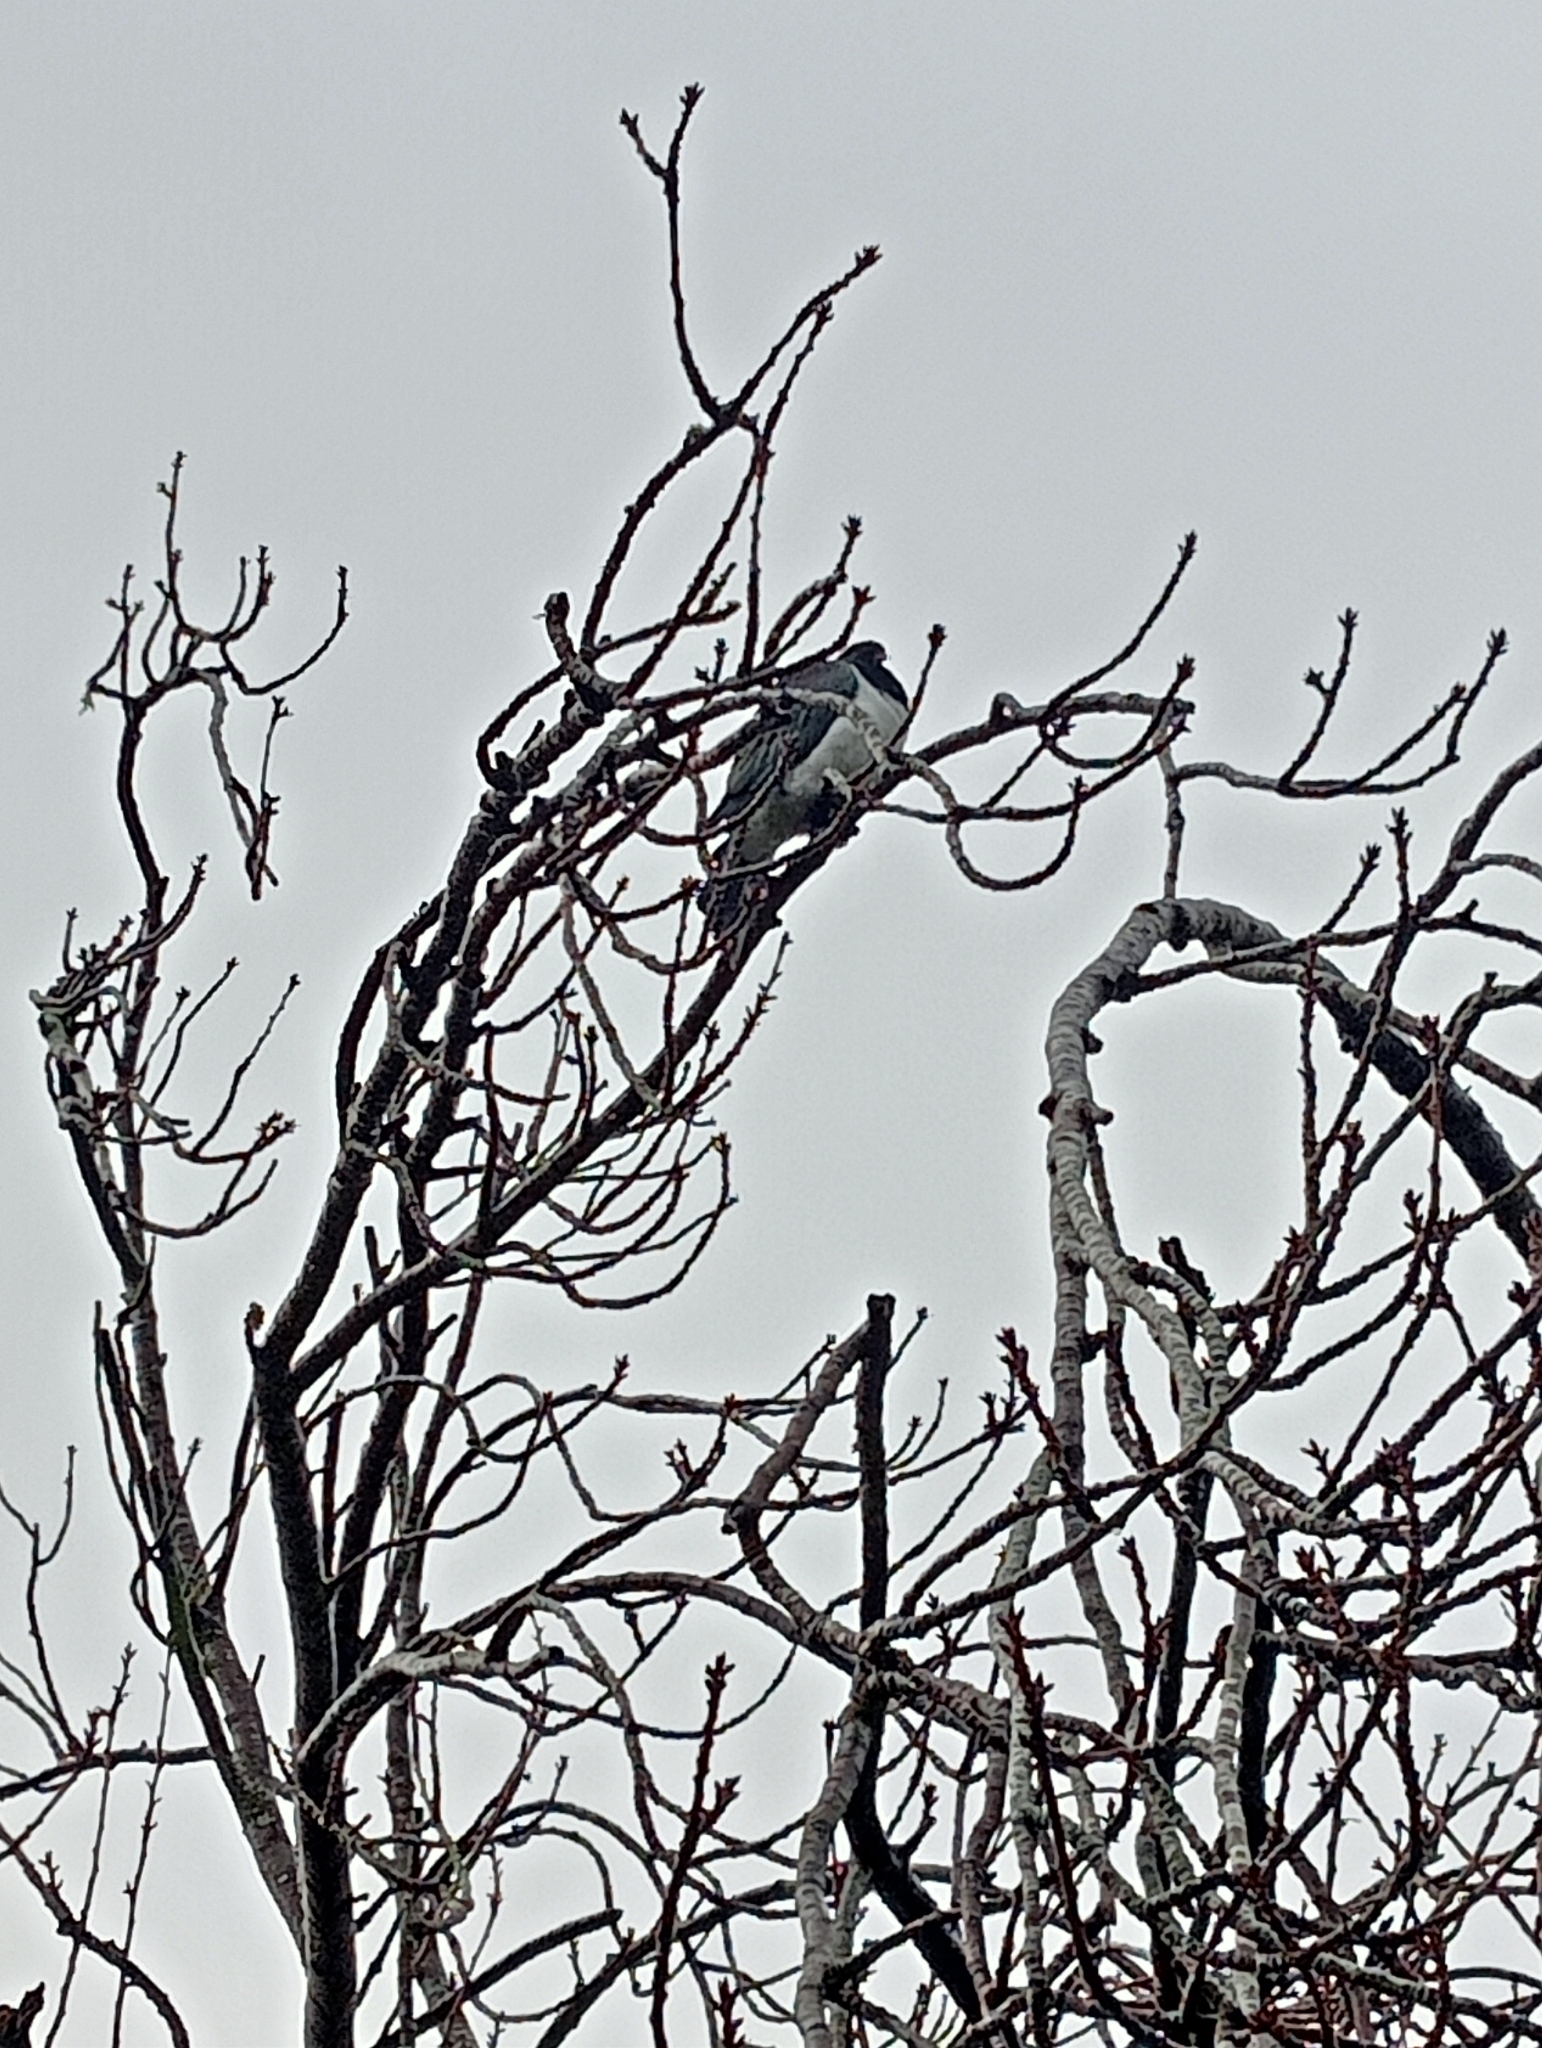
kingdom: Animalia
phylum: Chordata
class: Aves
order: Columbiformes
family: Columbidae
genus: Hemiphaga
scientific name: Hemiphaga novaeseelandiae
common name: New zealand pigeon
